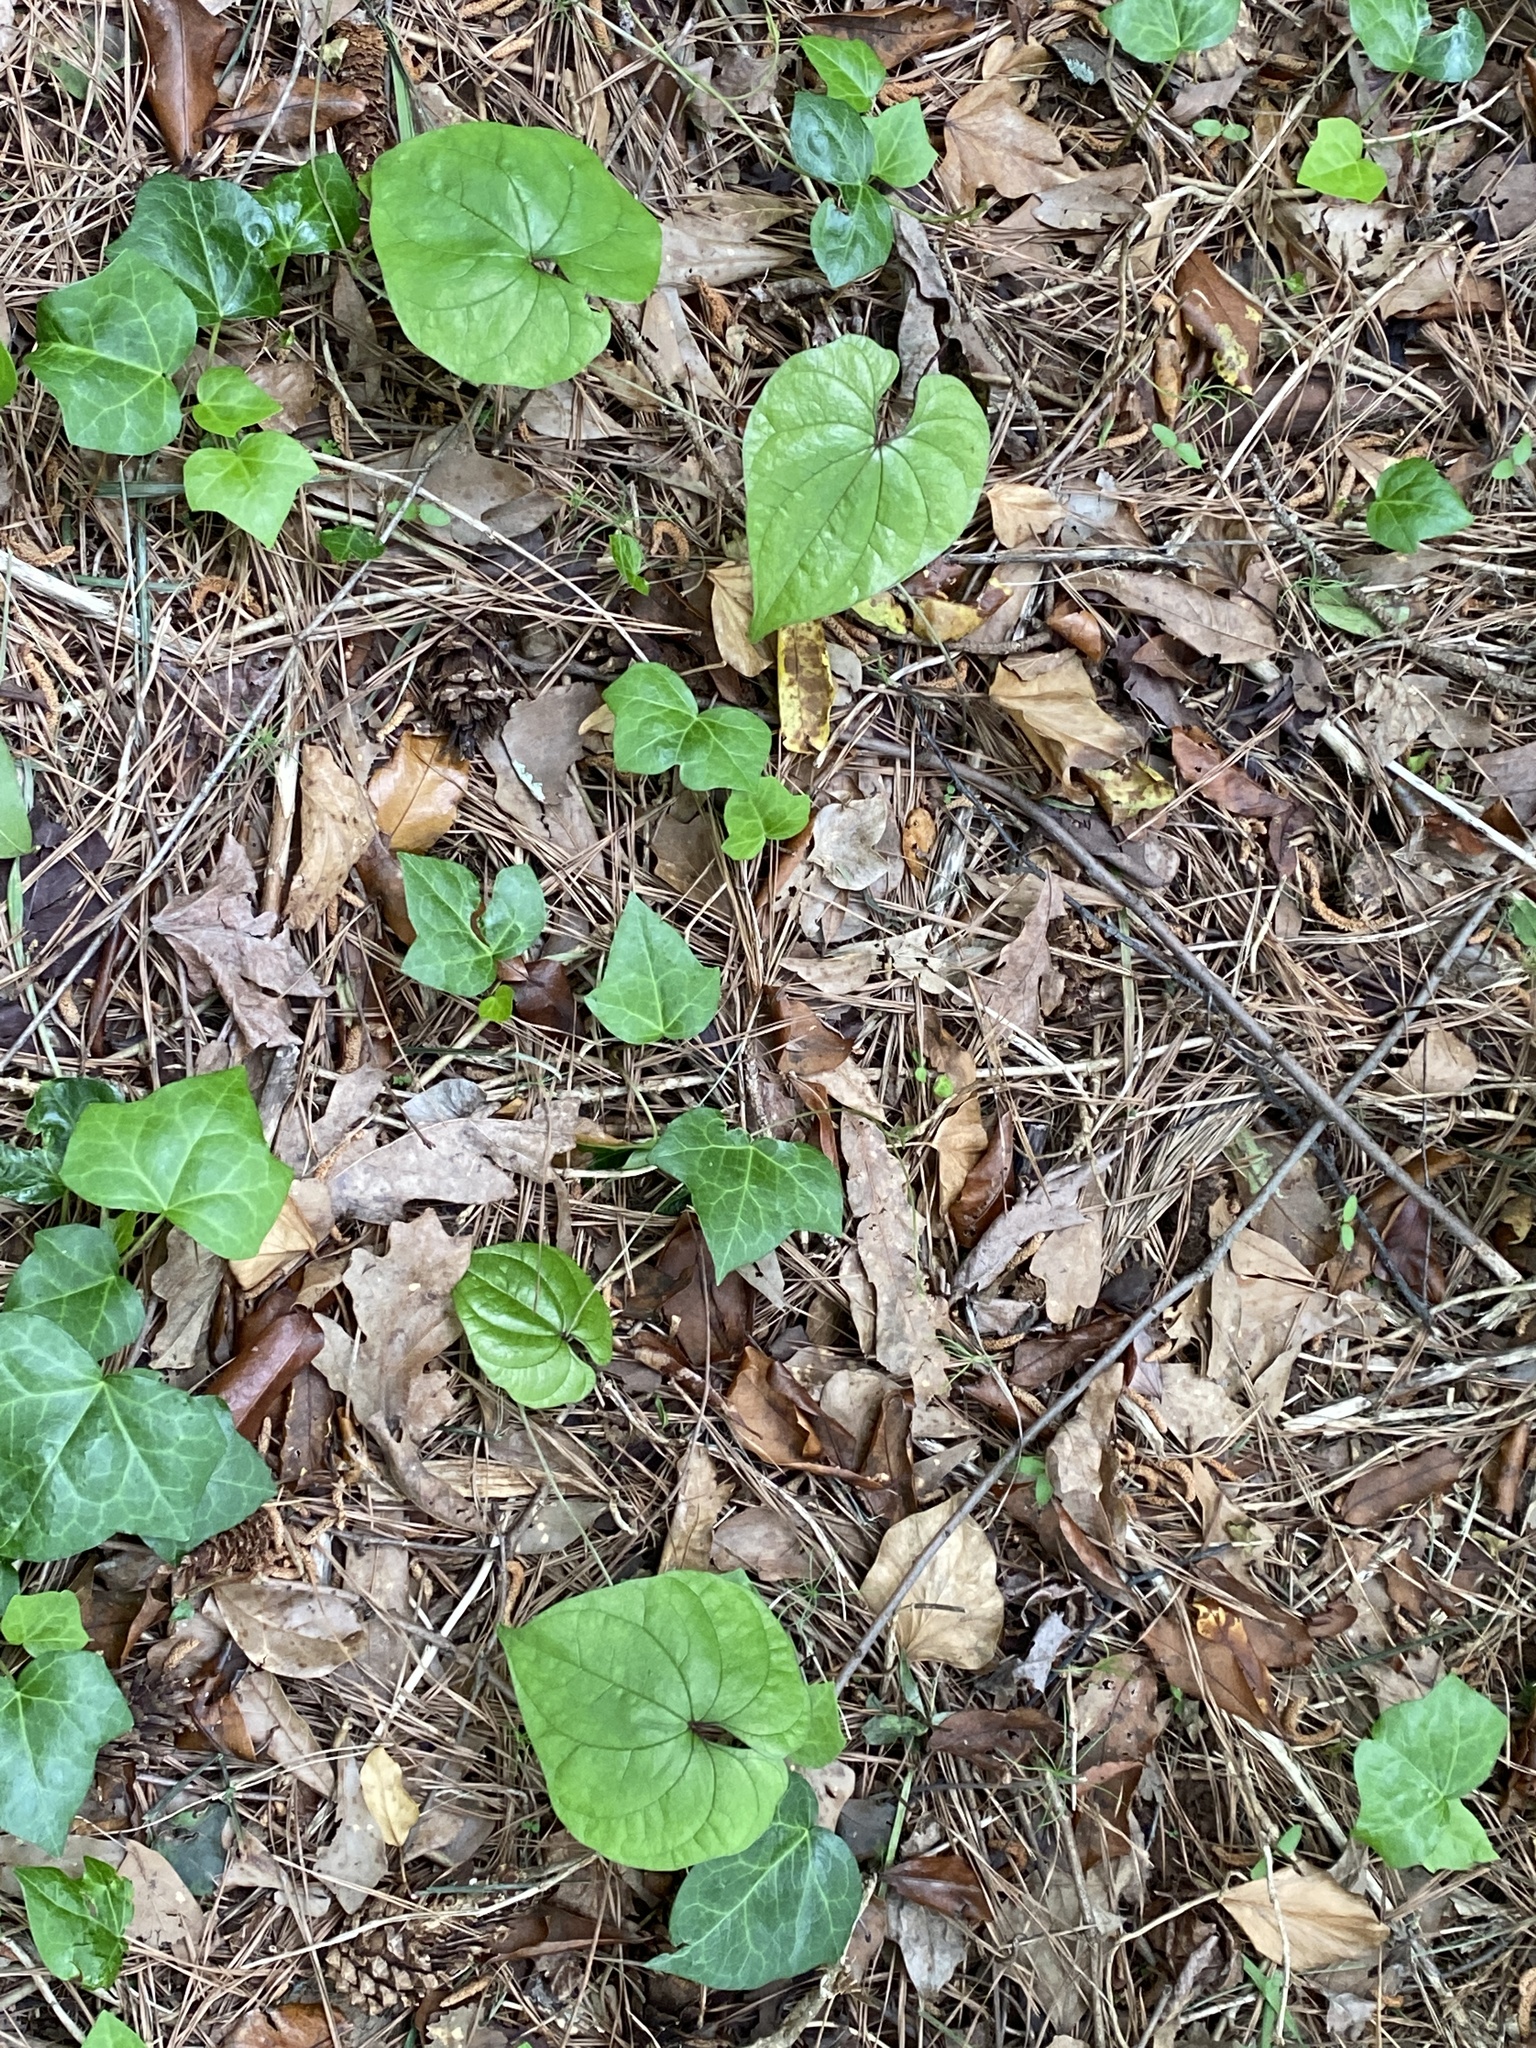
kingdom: Plantae
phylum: Tracheophyta
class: Liliopsida
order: Dioscoreales
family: Dioscoreaceae
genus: Dioscorea
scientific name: Dioscorea polystachya
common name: Chinese yam
